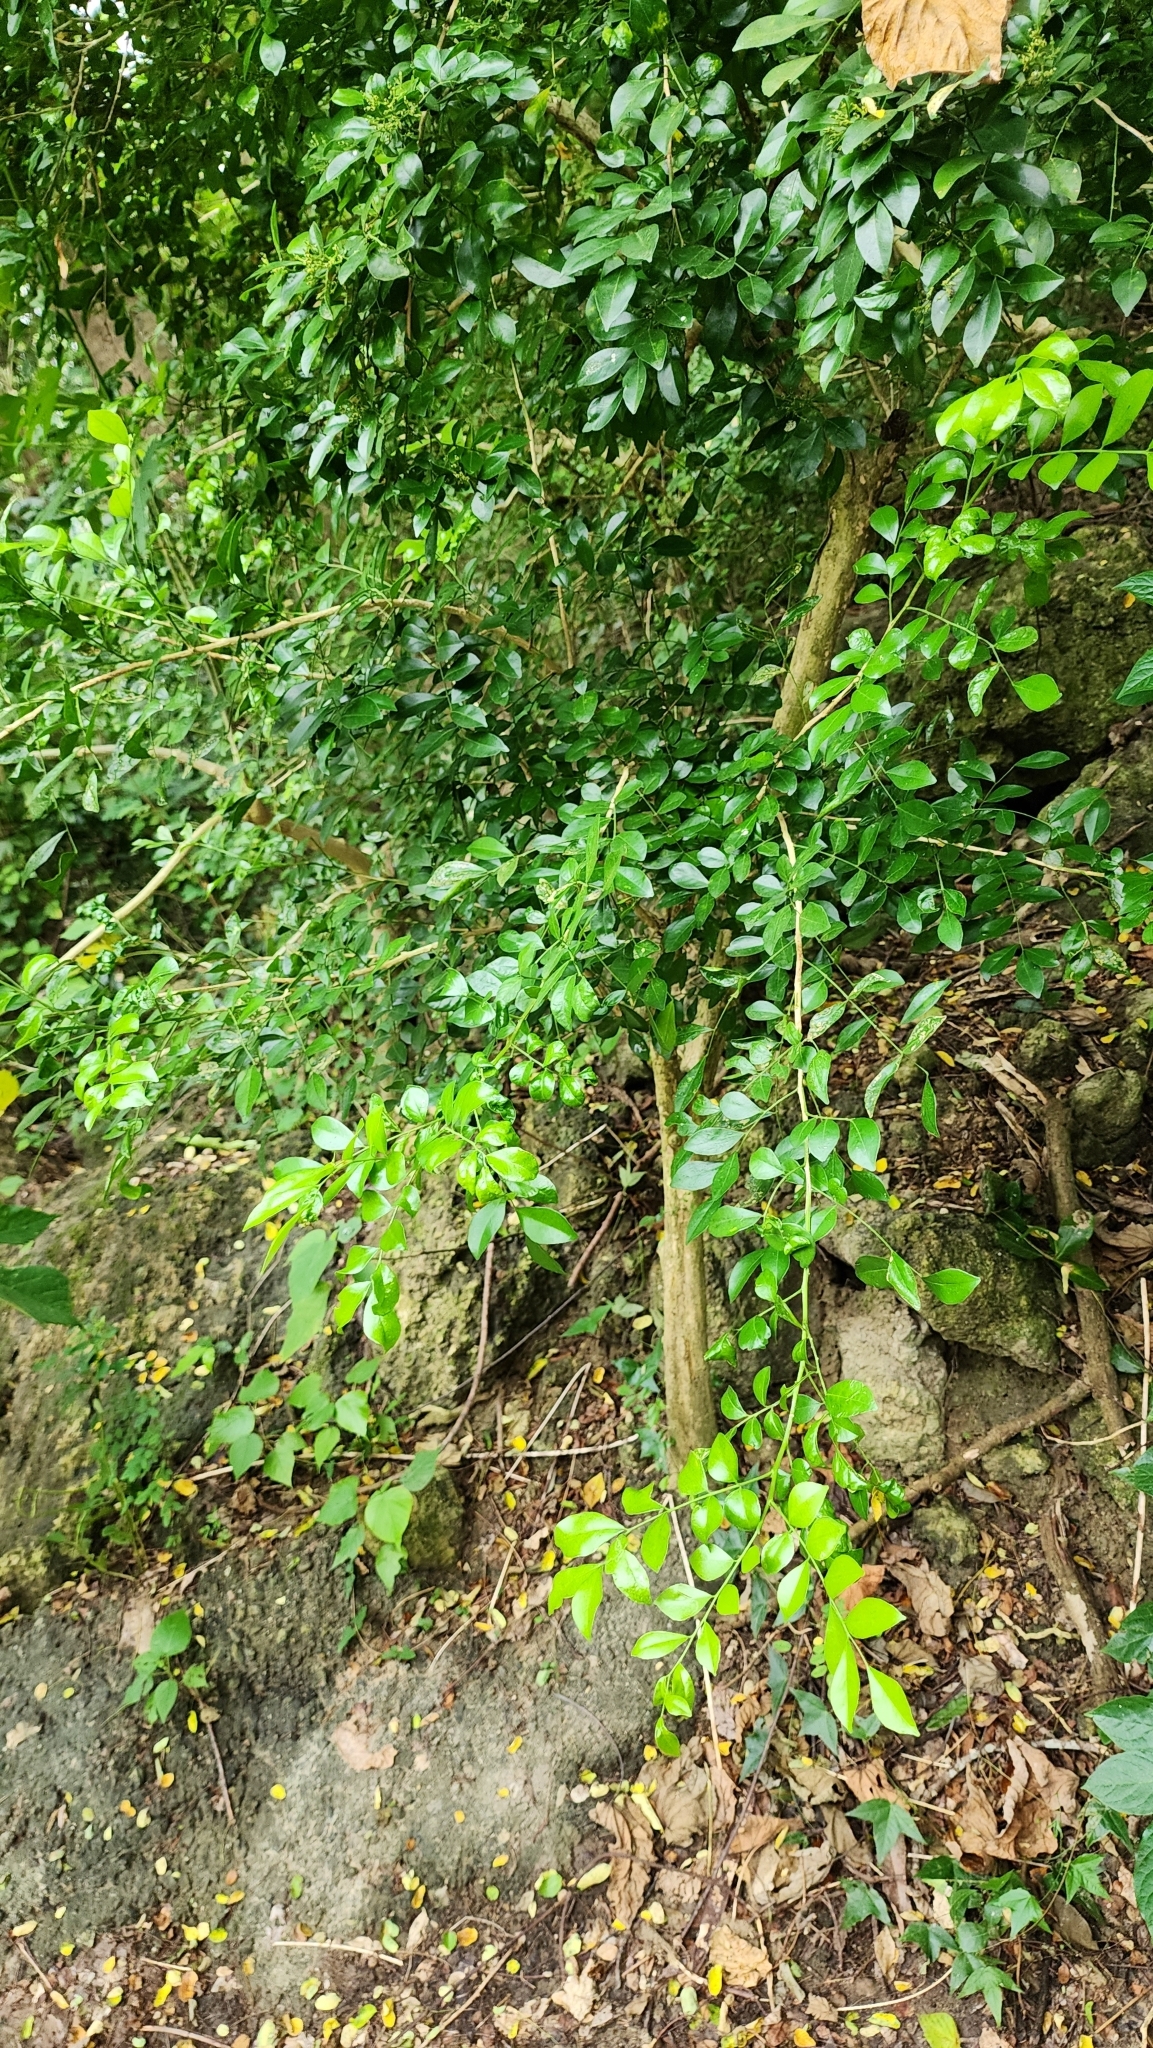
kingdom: Plantae
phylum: Tracheophyta
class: Magnoliopsida
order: Sapindales
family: Rutaceae
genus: Murraya
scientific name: Murraya paniculata
